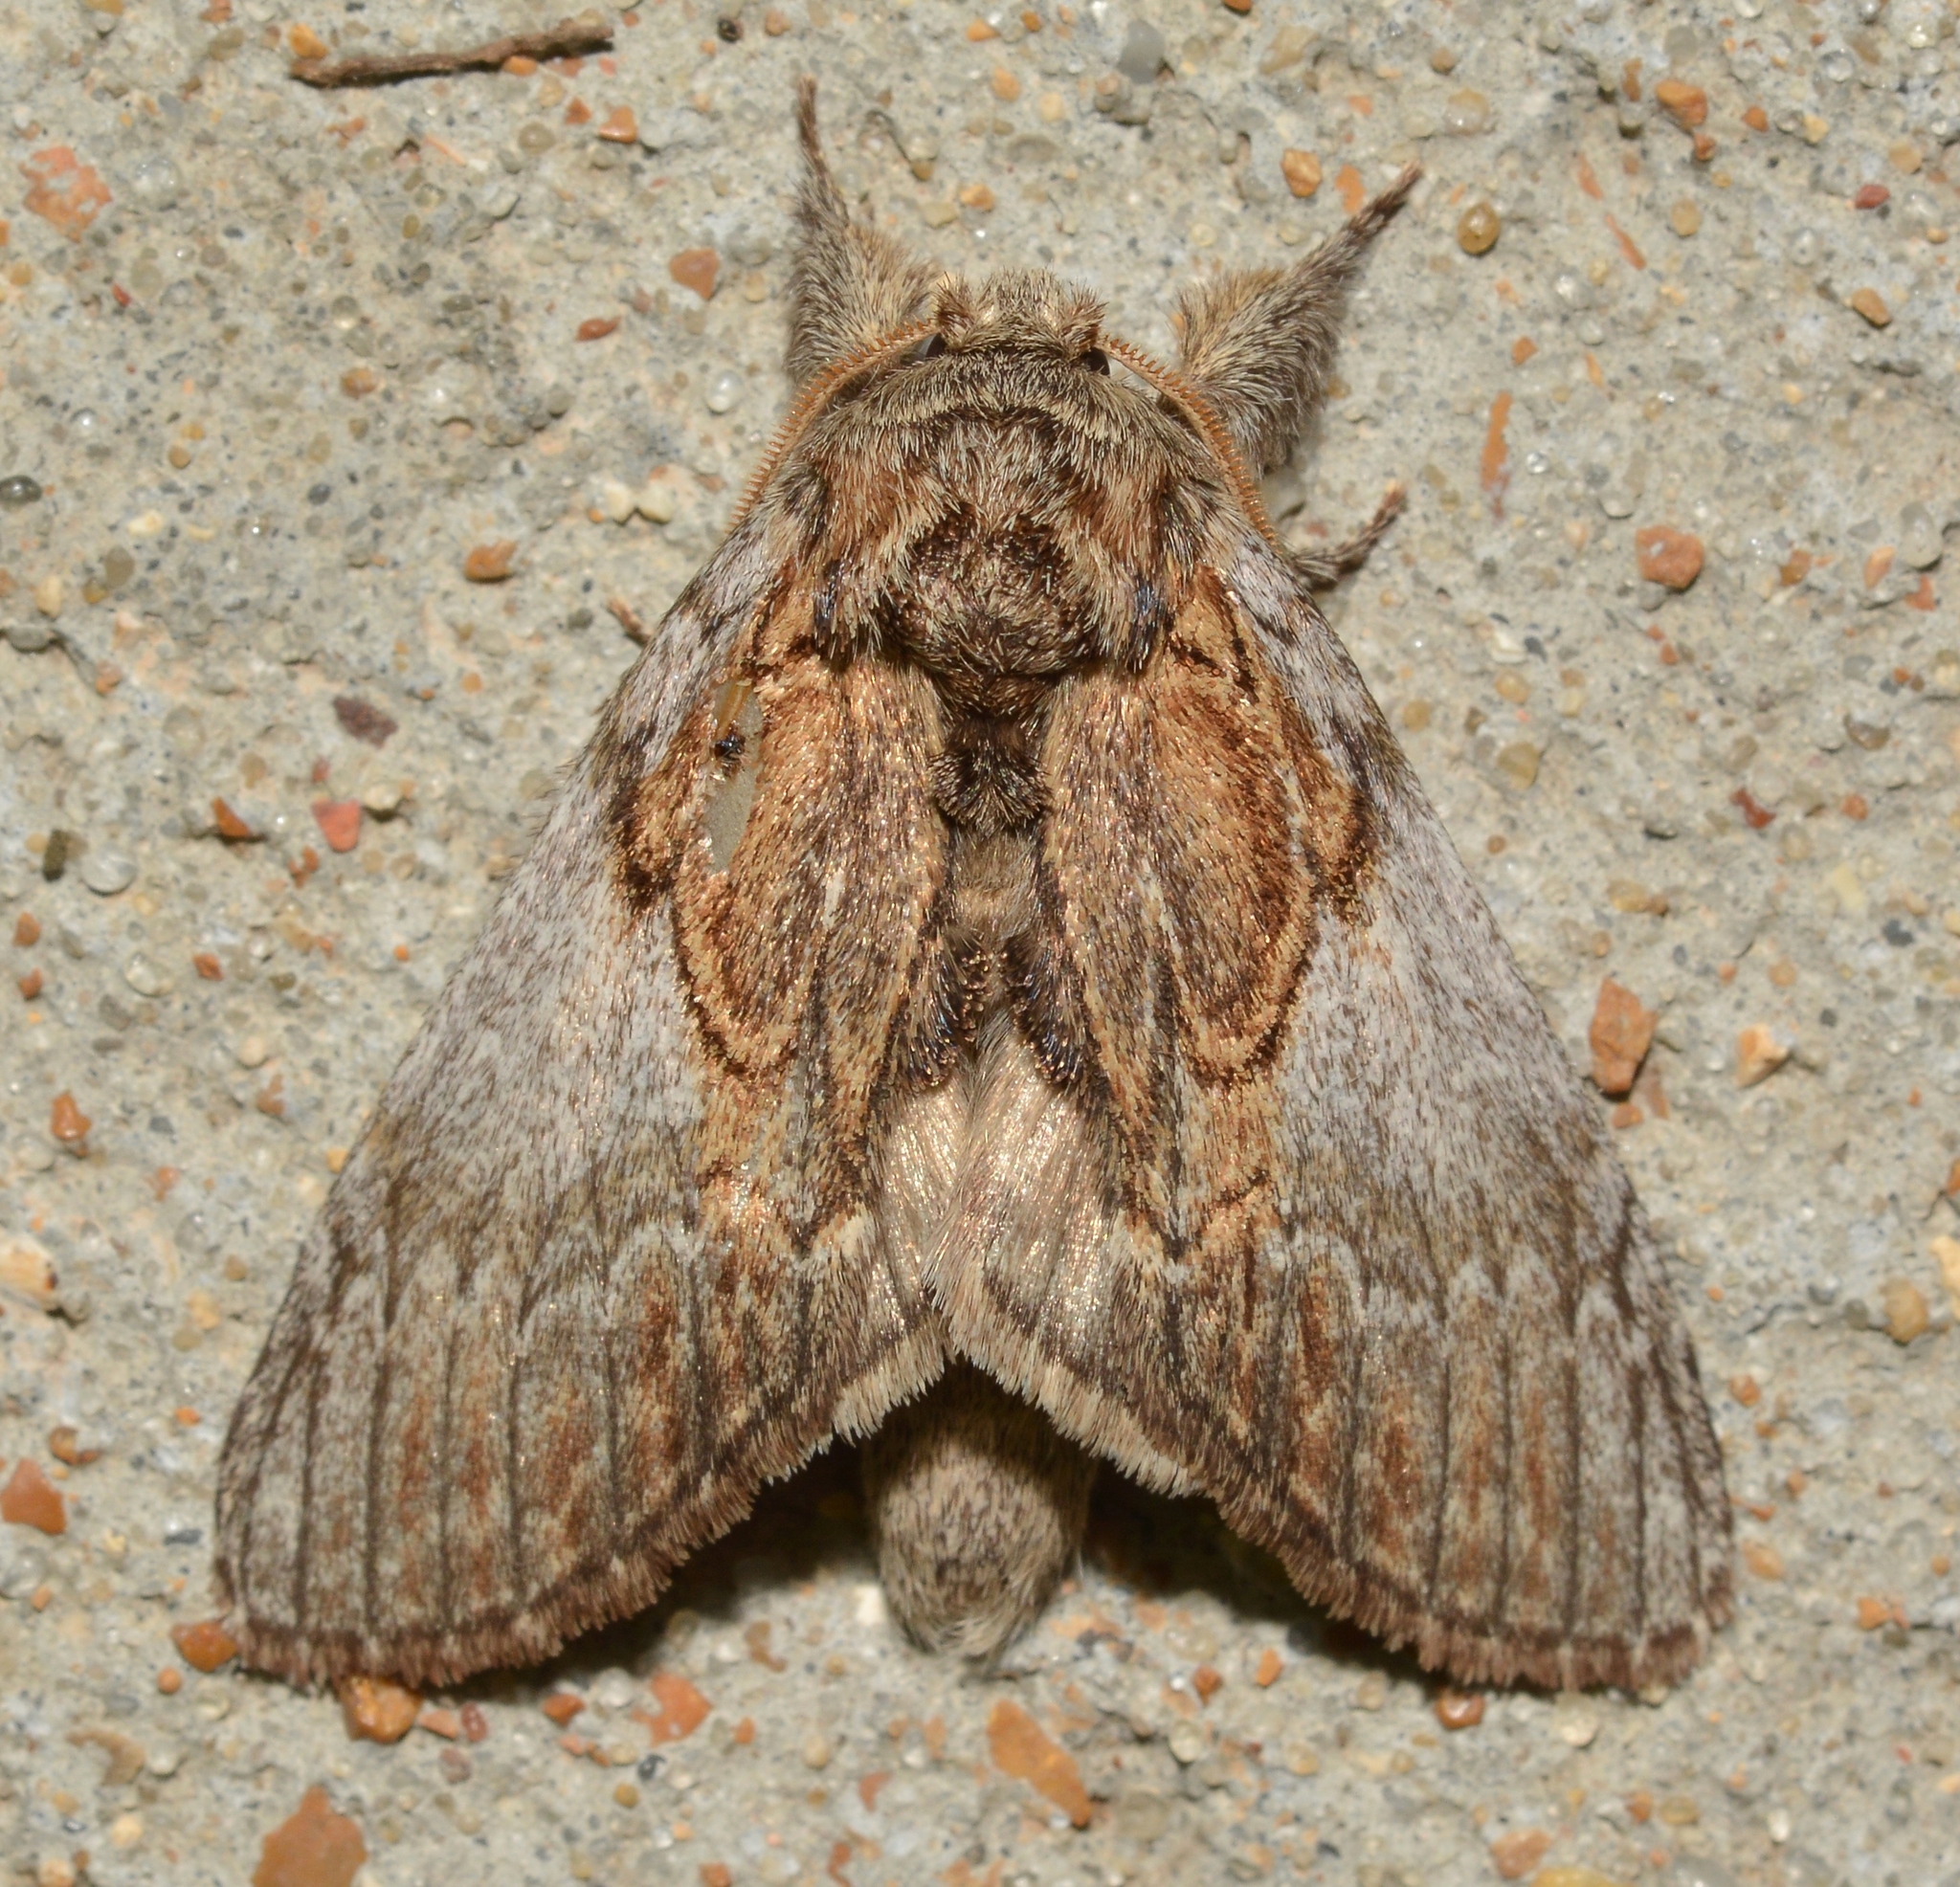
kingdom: Animalia
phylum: Arthropoda
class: Insecta
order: Lepidoptera
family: Notodontidae
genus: Peridea
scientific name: Peridea basitriens
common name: Oval-based prominent
